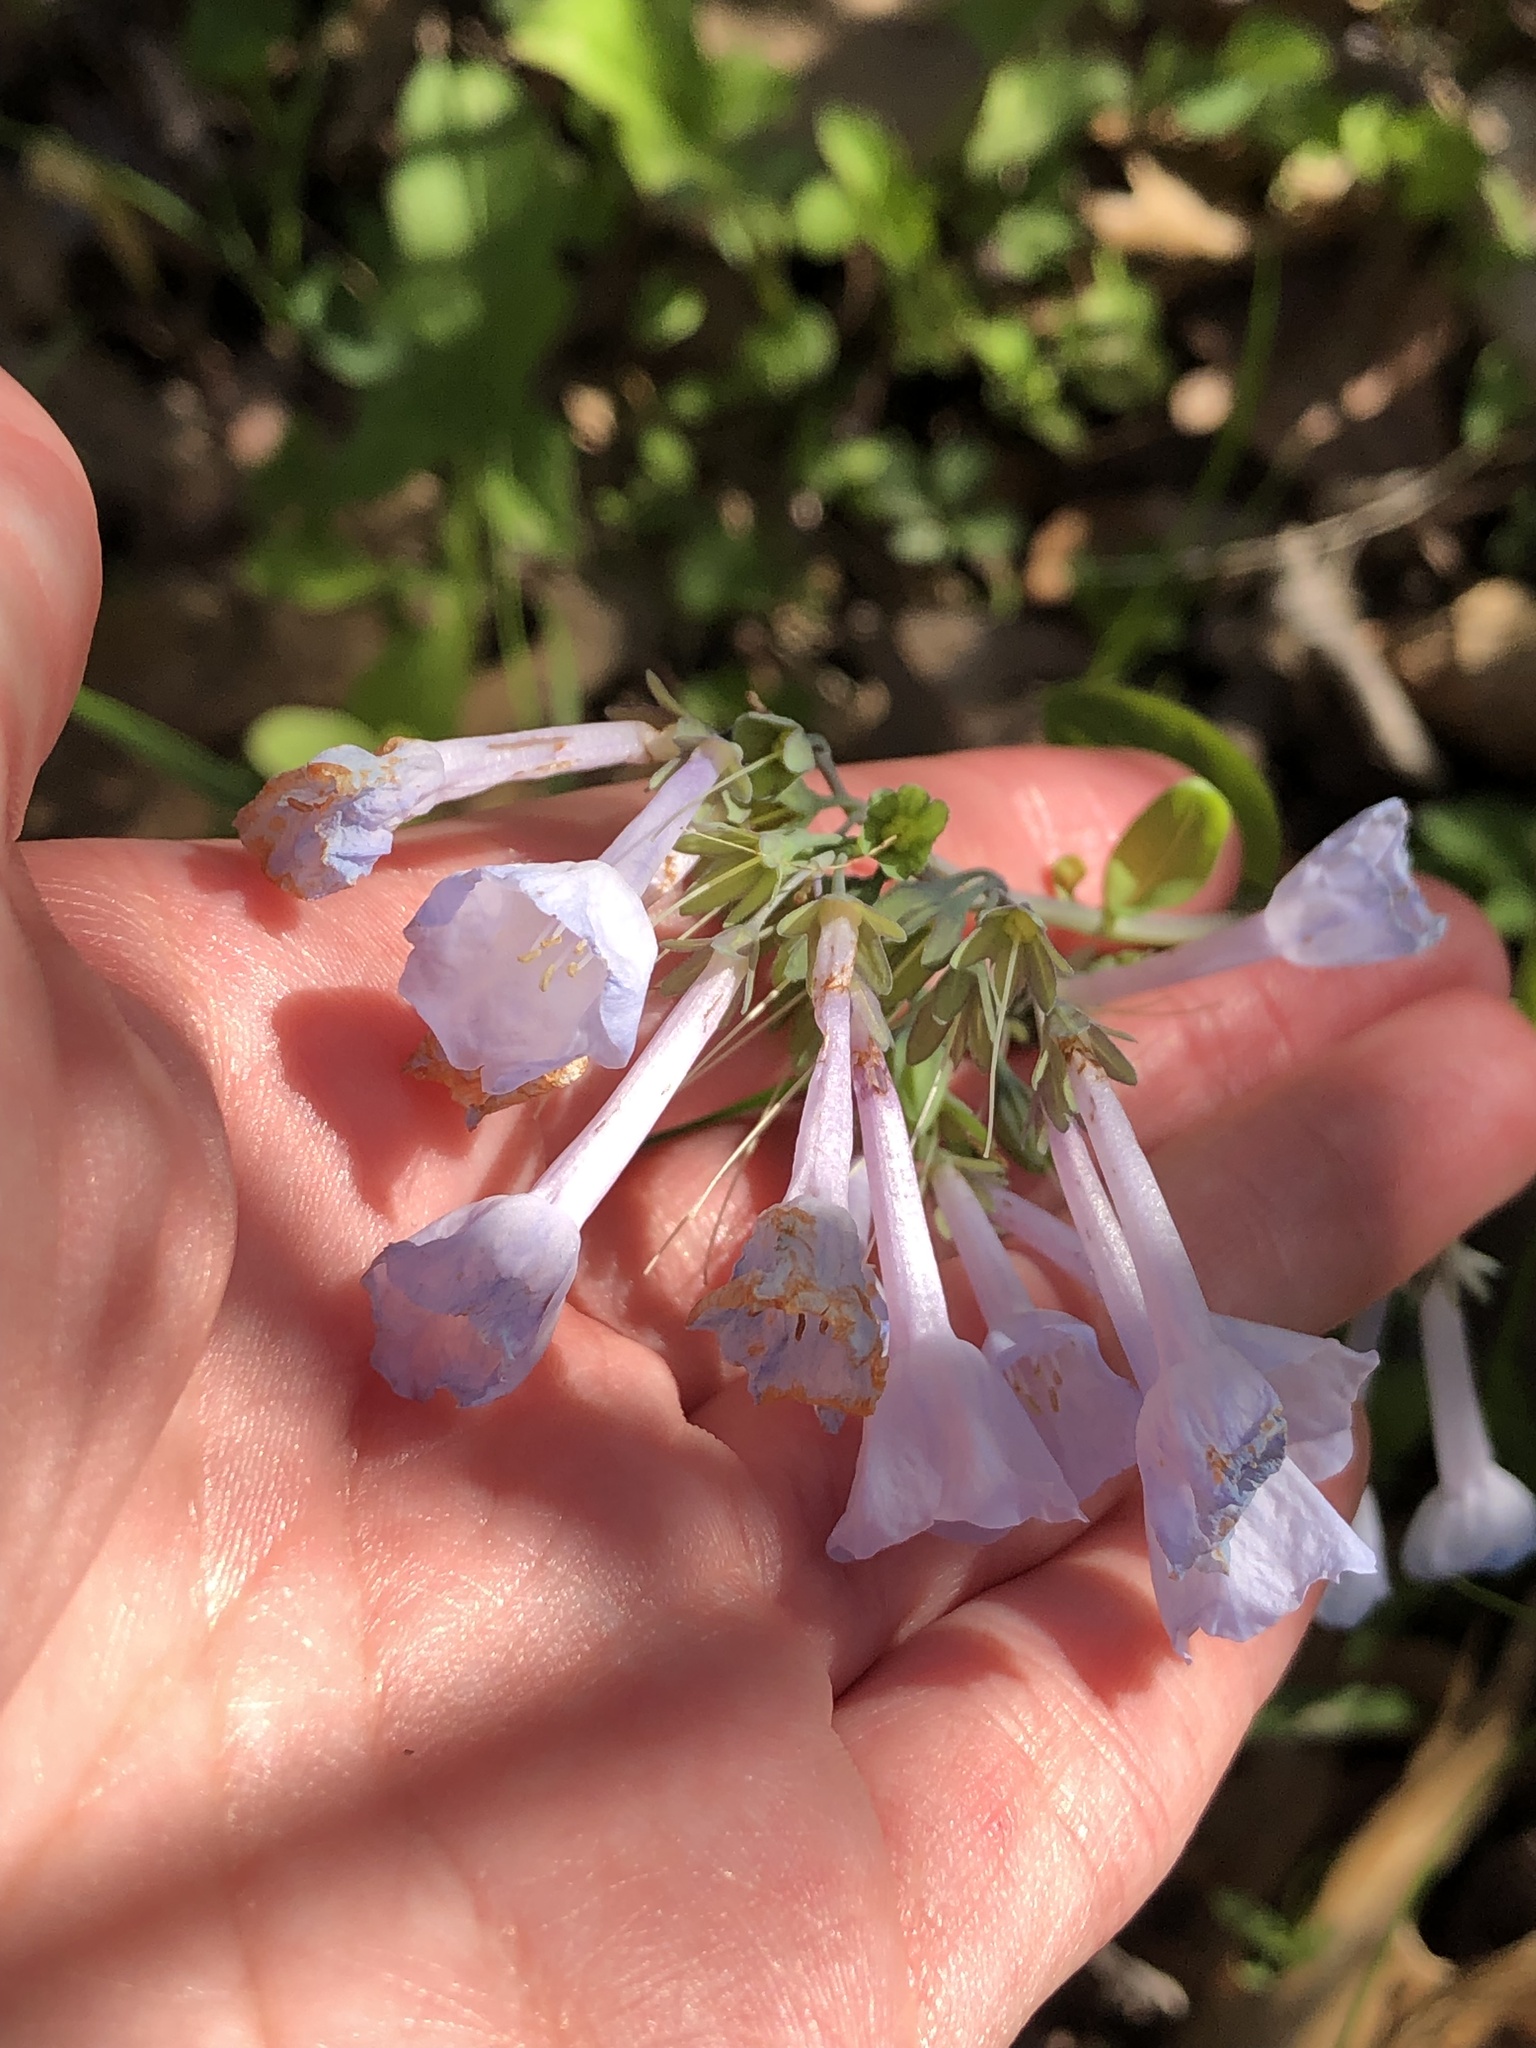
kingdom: Plantae
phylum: Tracheophyta
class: Magnoliopsida
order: Boraginales
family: Boraginaceae
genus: Mertensia
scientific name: Mertensia virginica
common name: Virginia bluebells
